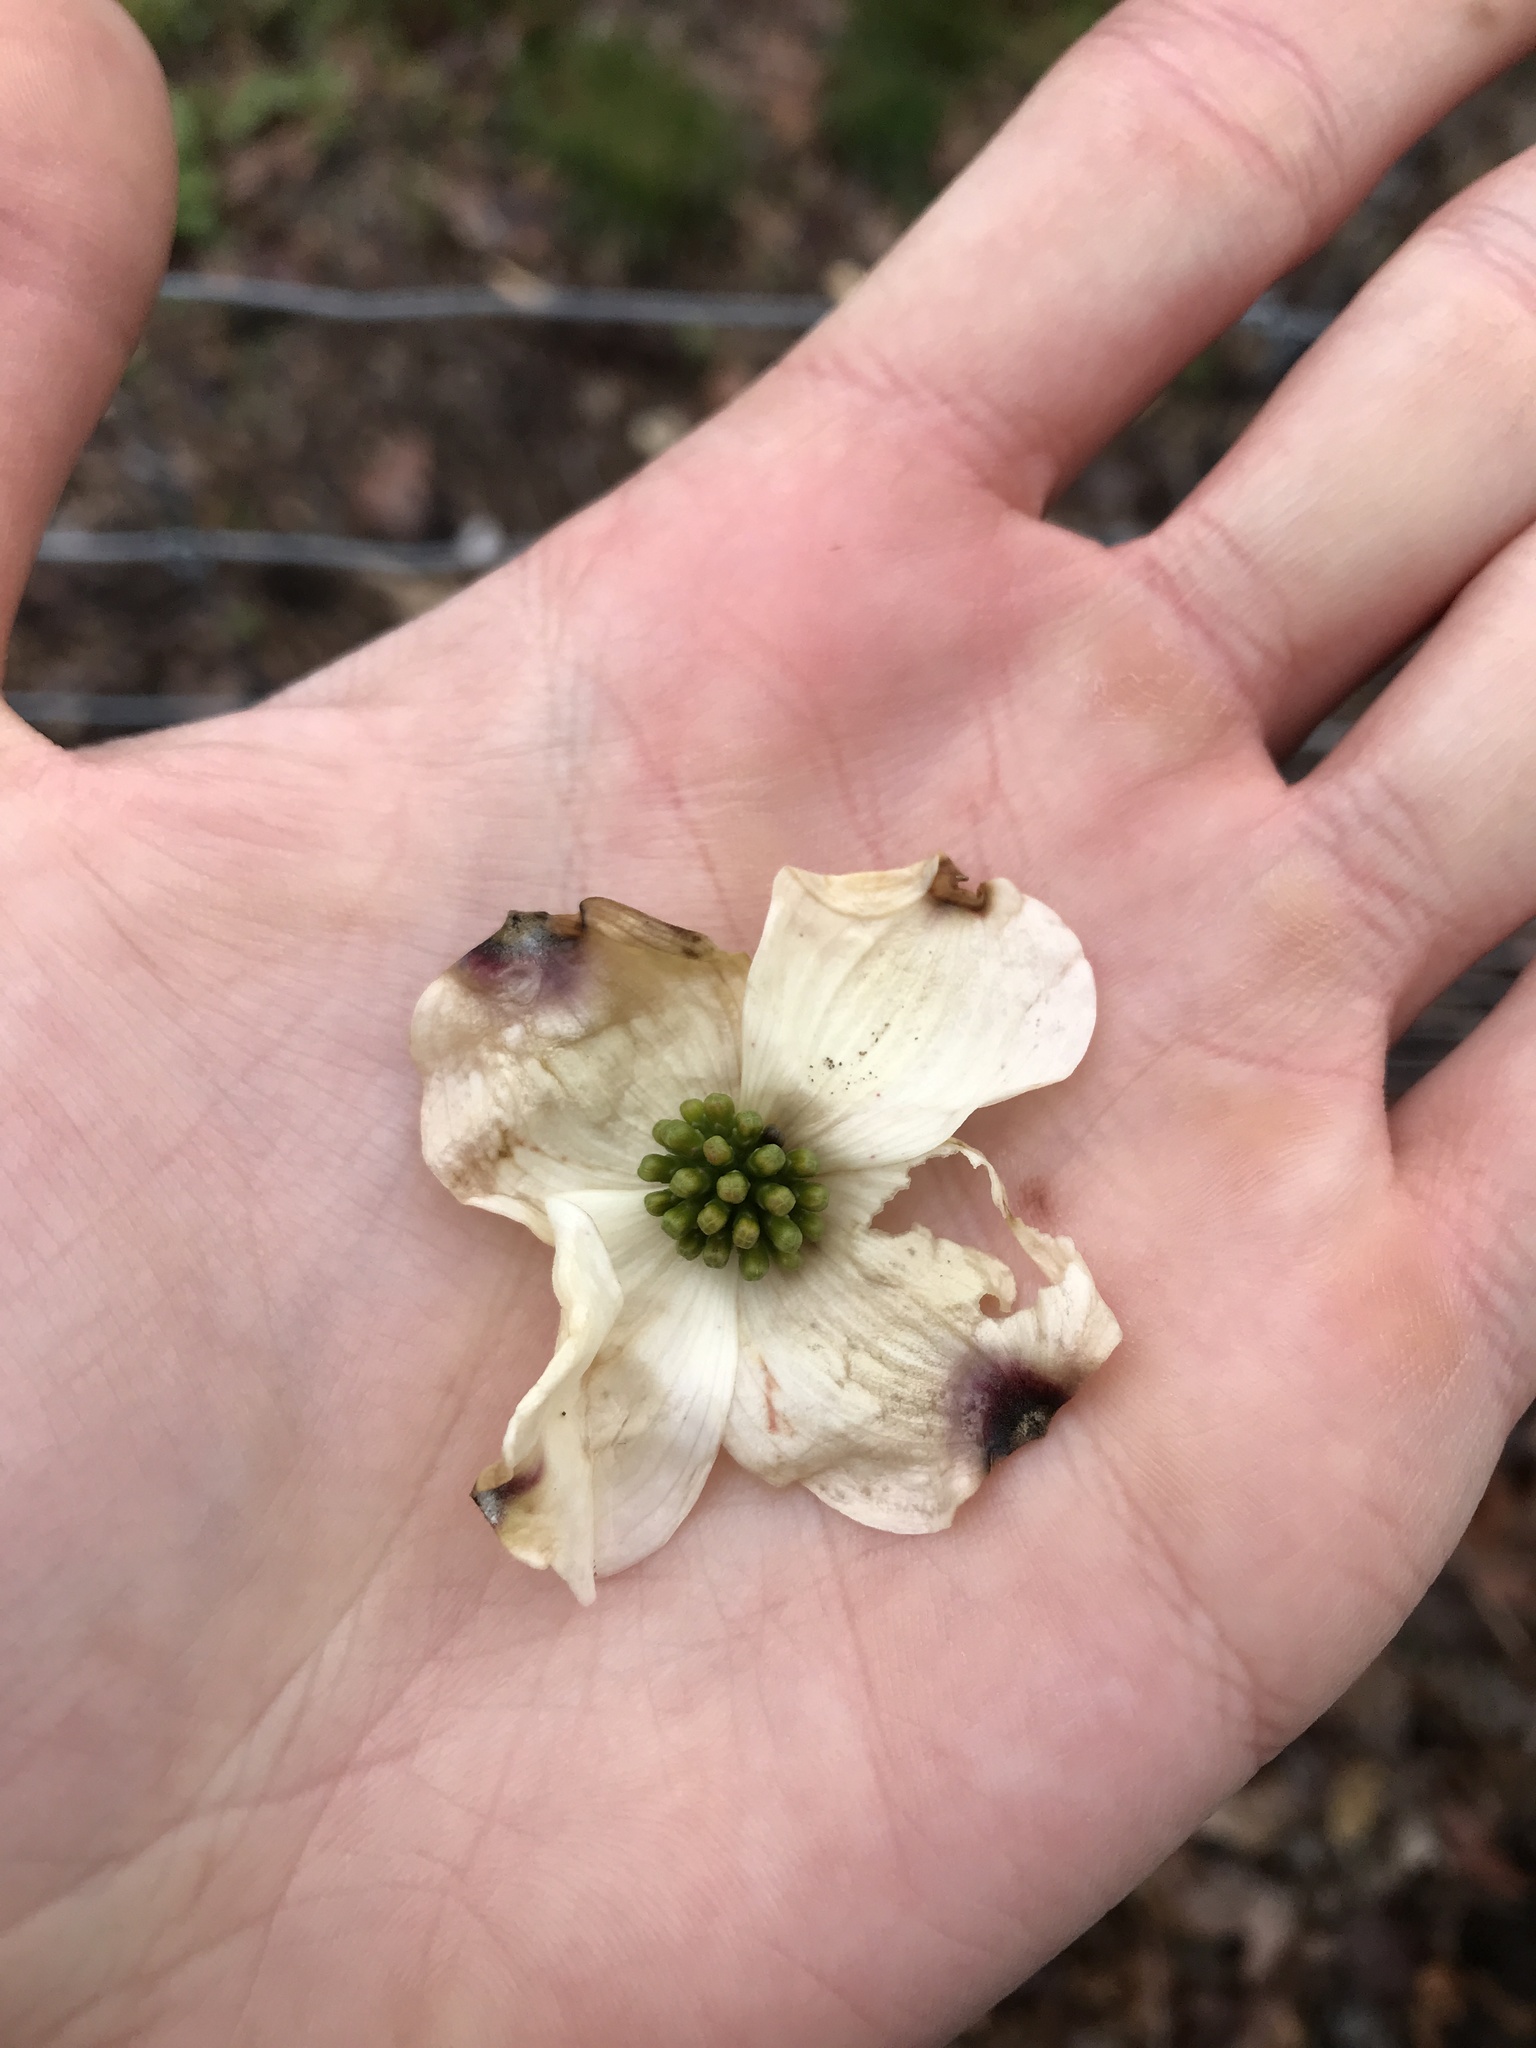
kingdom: Plantae
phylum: Tracheophyta
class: Magnoliopsida
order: Cornales
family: Cornaceae
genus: Cornus
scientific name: Cornus florida
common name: Flowering dogwood
